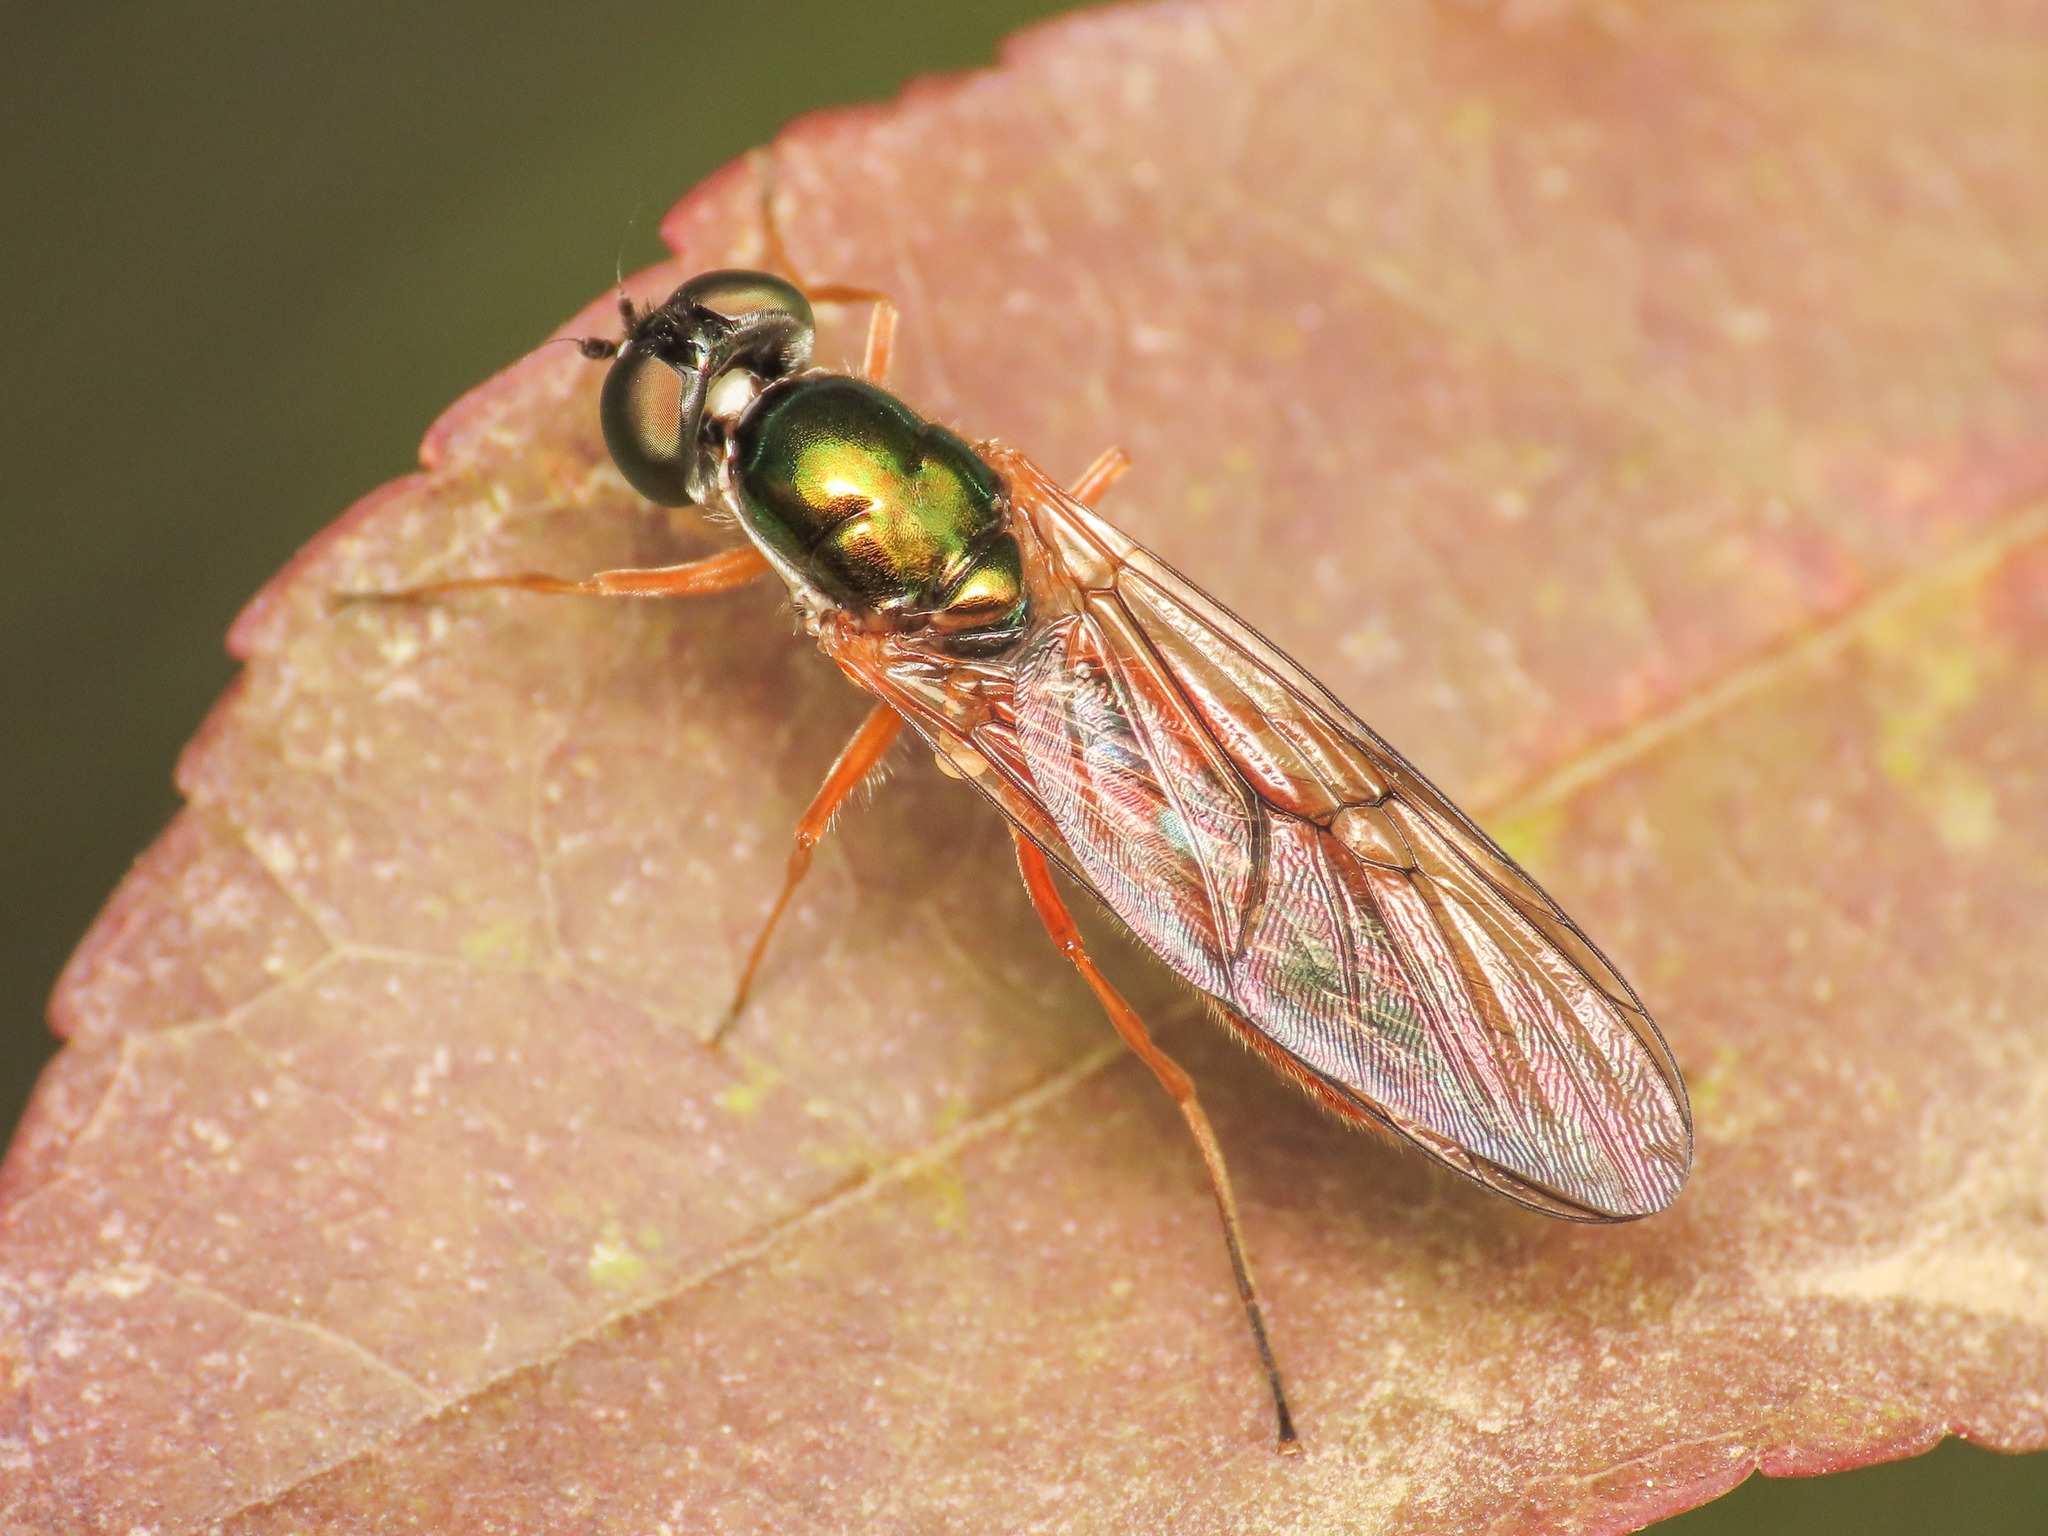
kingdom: Animalia
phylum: Arthropoda
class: Insecta
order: Diptera
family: Stratiomyidae
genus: Sargus
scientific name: Sargus bipunctatus
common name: Twin-spot centurion
